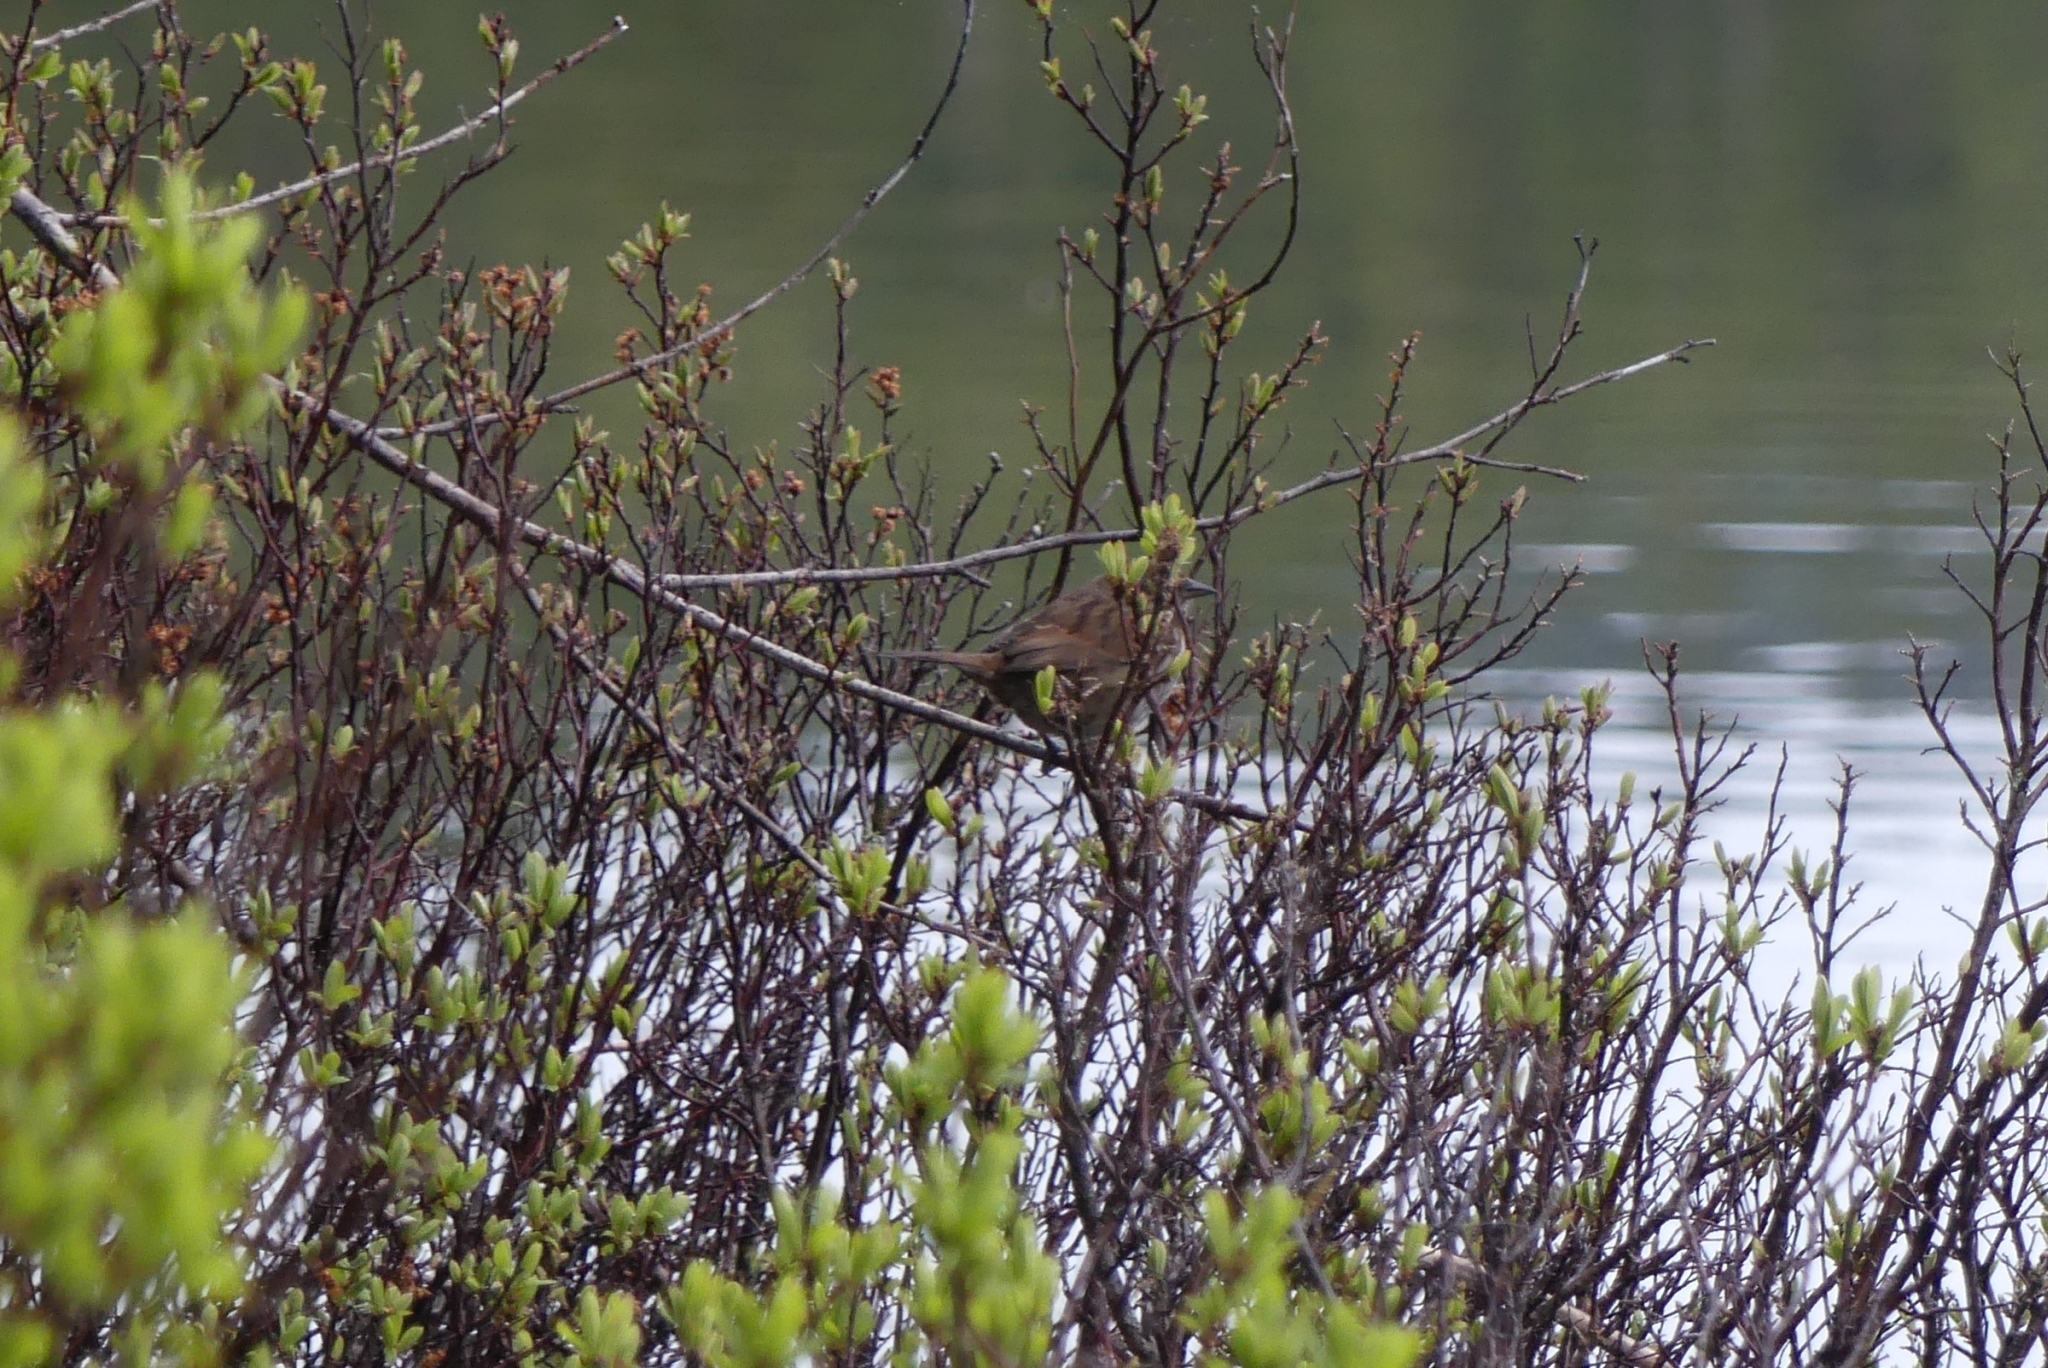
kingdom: Animalia
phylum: Chordata
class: Aves
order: Passeriformes
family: Passerellidae
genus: Melospiza
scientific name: Melospiza melodia
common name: Song sparrow
